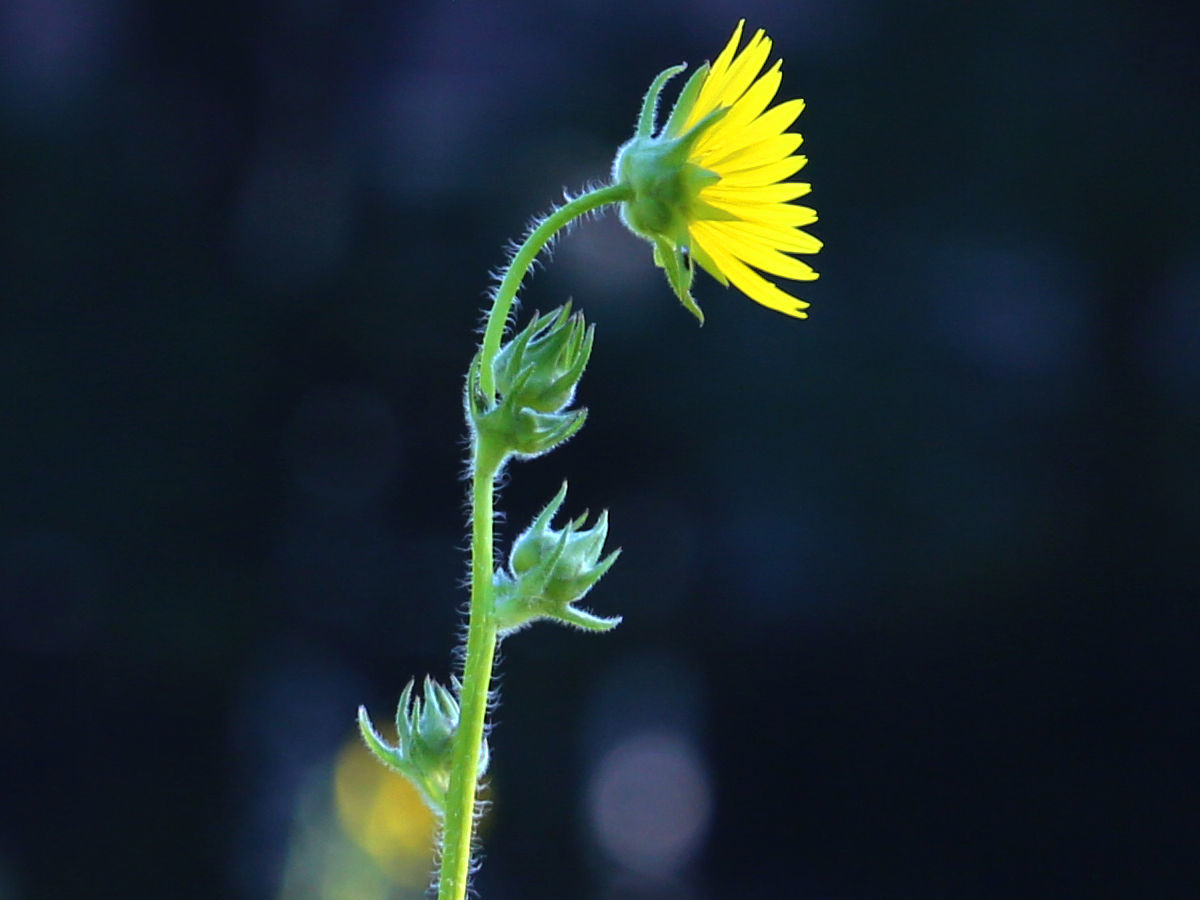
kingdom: Plantae
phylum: Tracheophyta
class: Magnoliopsida
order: Asterales
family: Asteraceae
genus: Silphium
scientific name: Silphium laciniatum
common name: Polarplant
